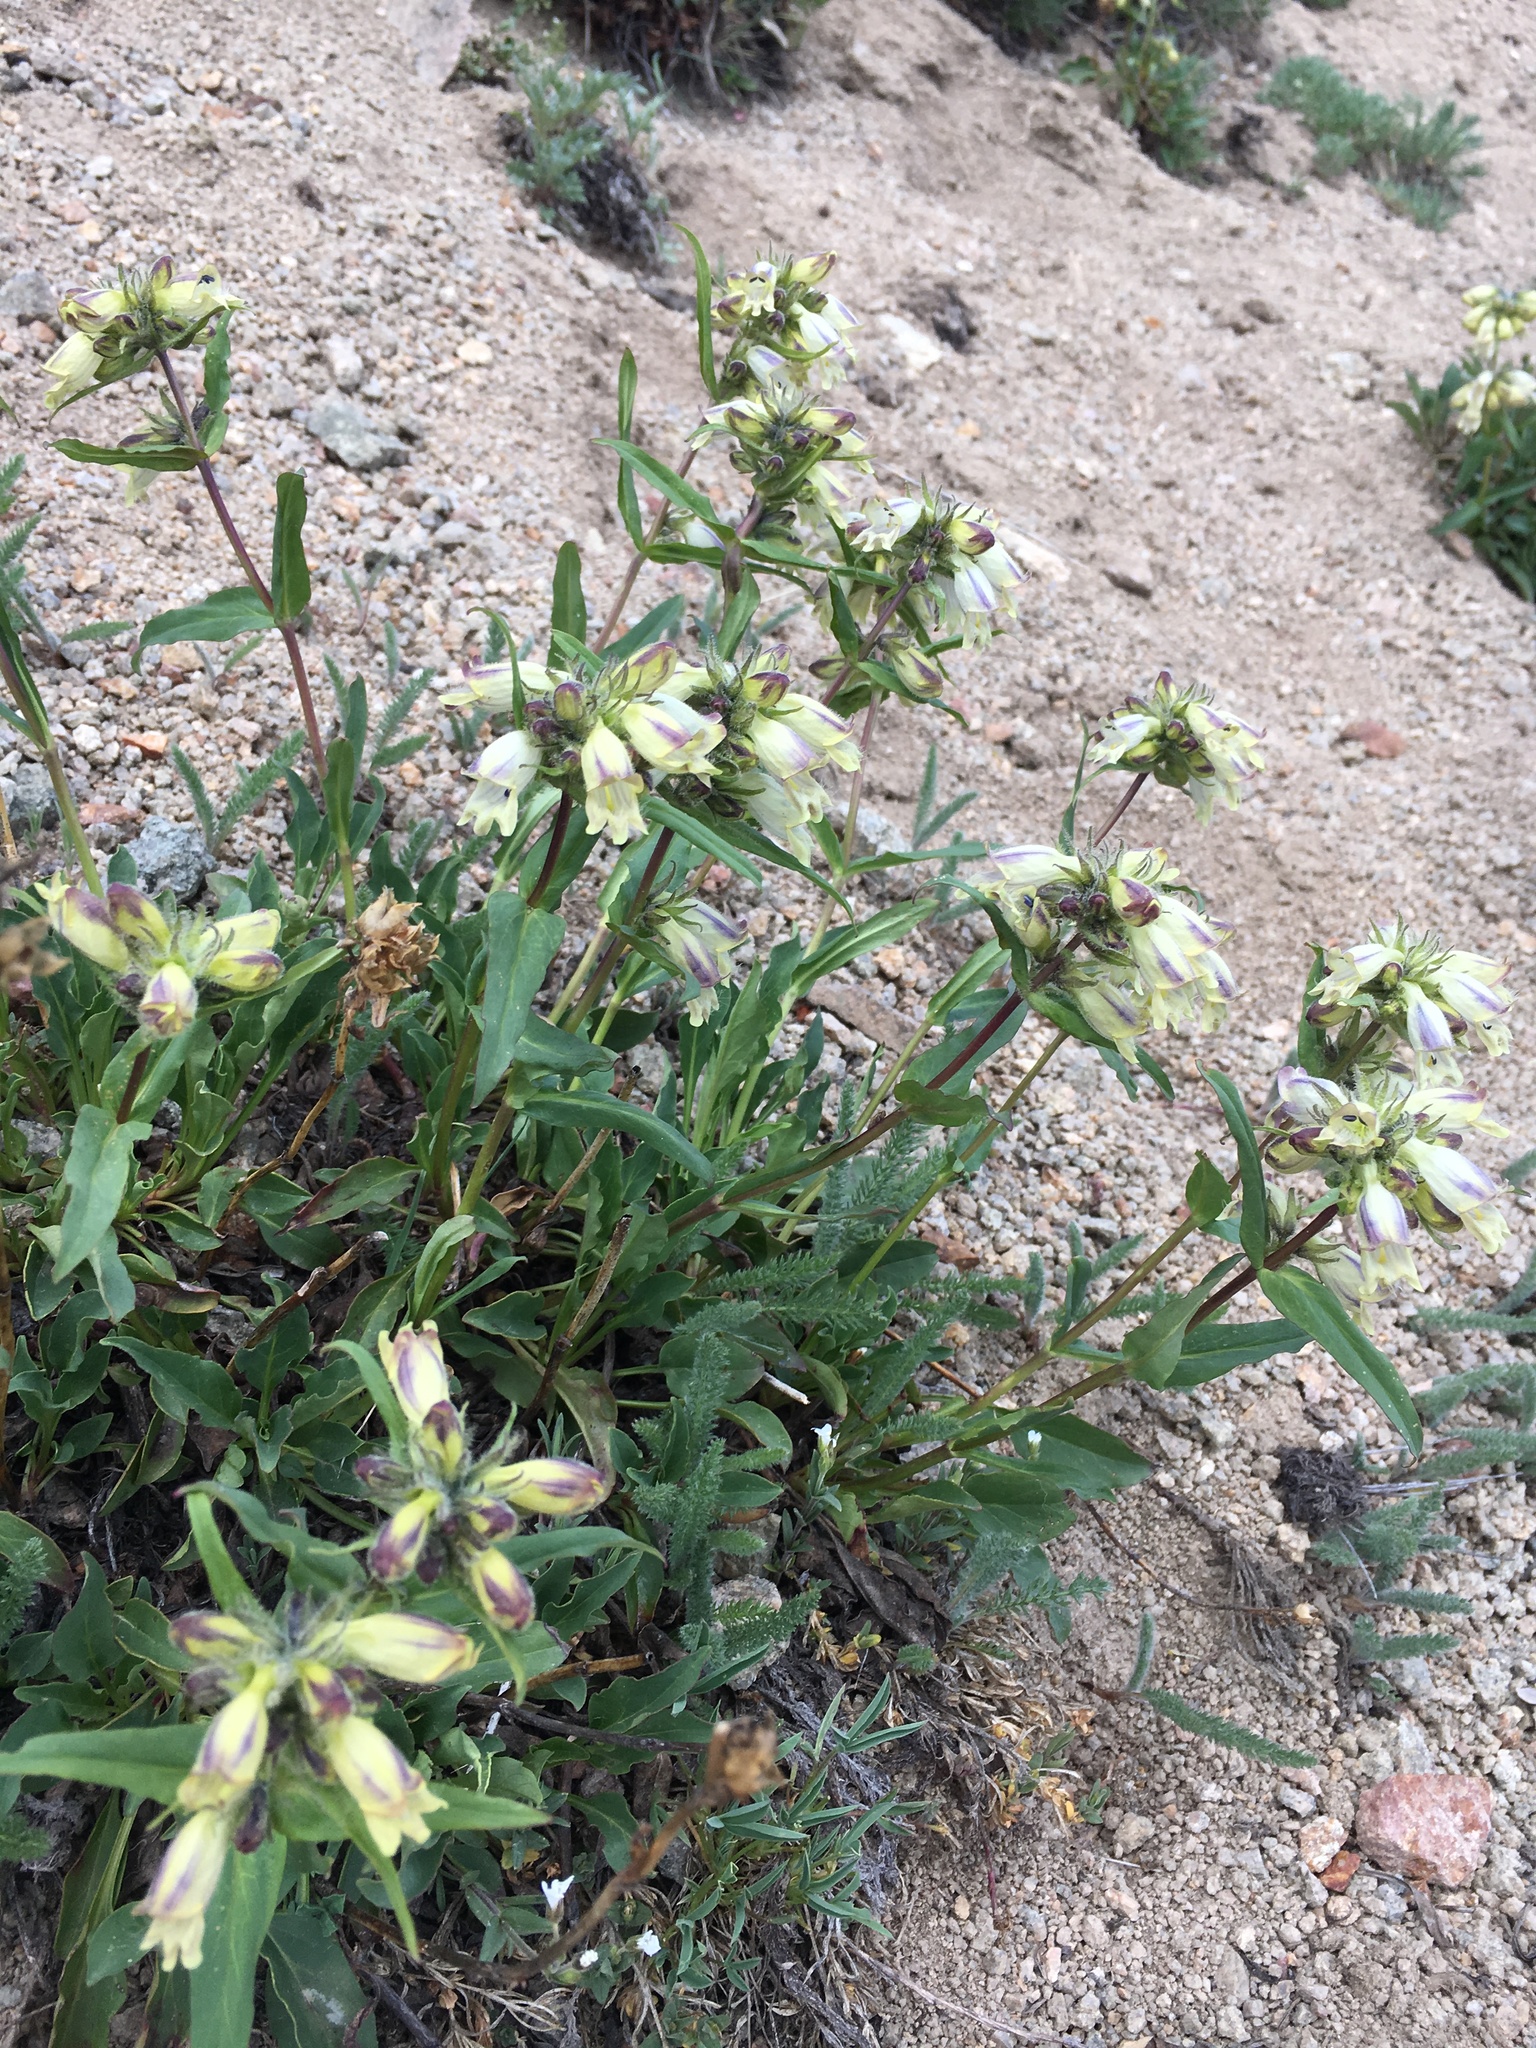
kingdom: Plantae
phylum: Tracheophyta
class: Magnoliopsida
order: Lamiales
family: Plantaginaceae
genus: Penstemon
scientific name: Penstemon whippleanus
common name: Whipple's penstemon
